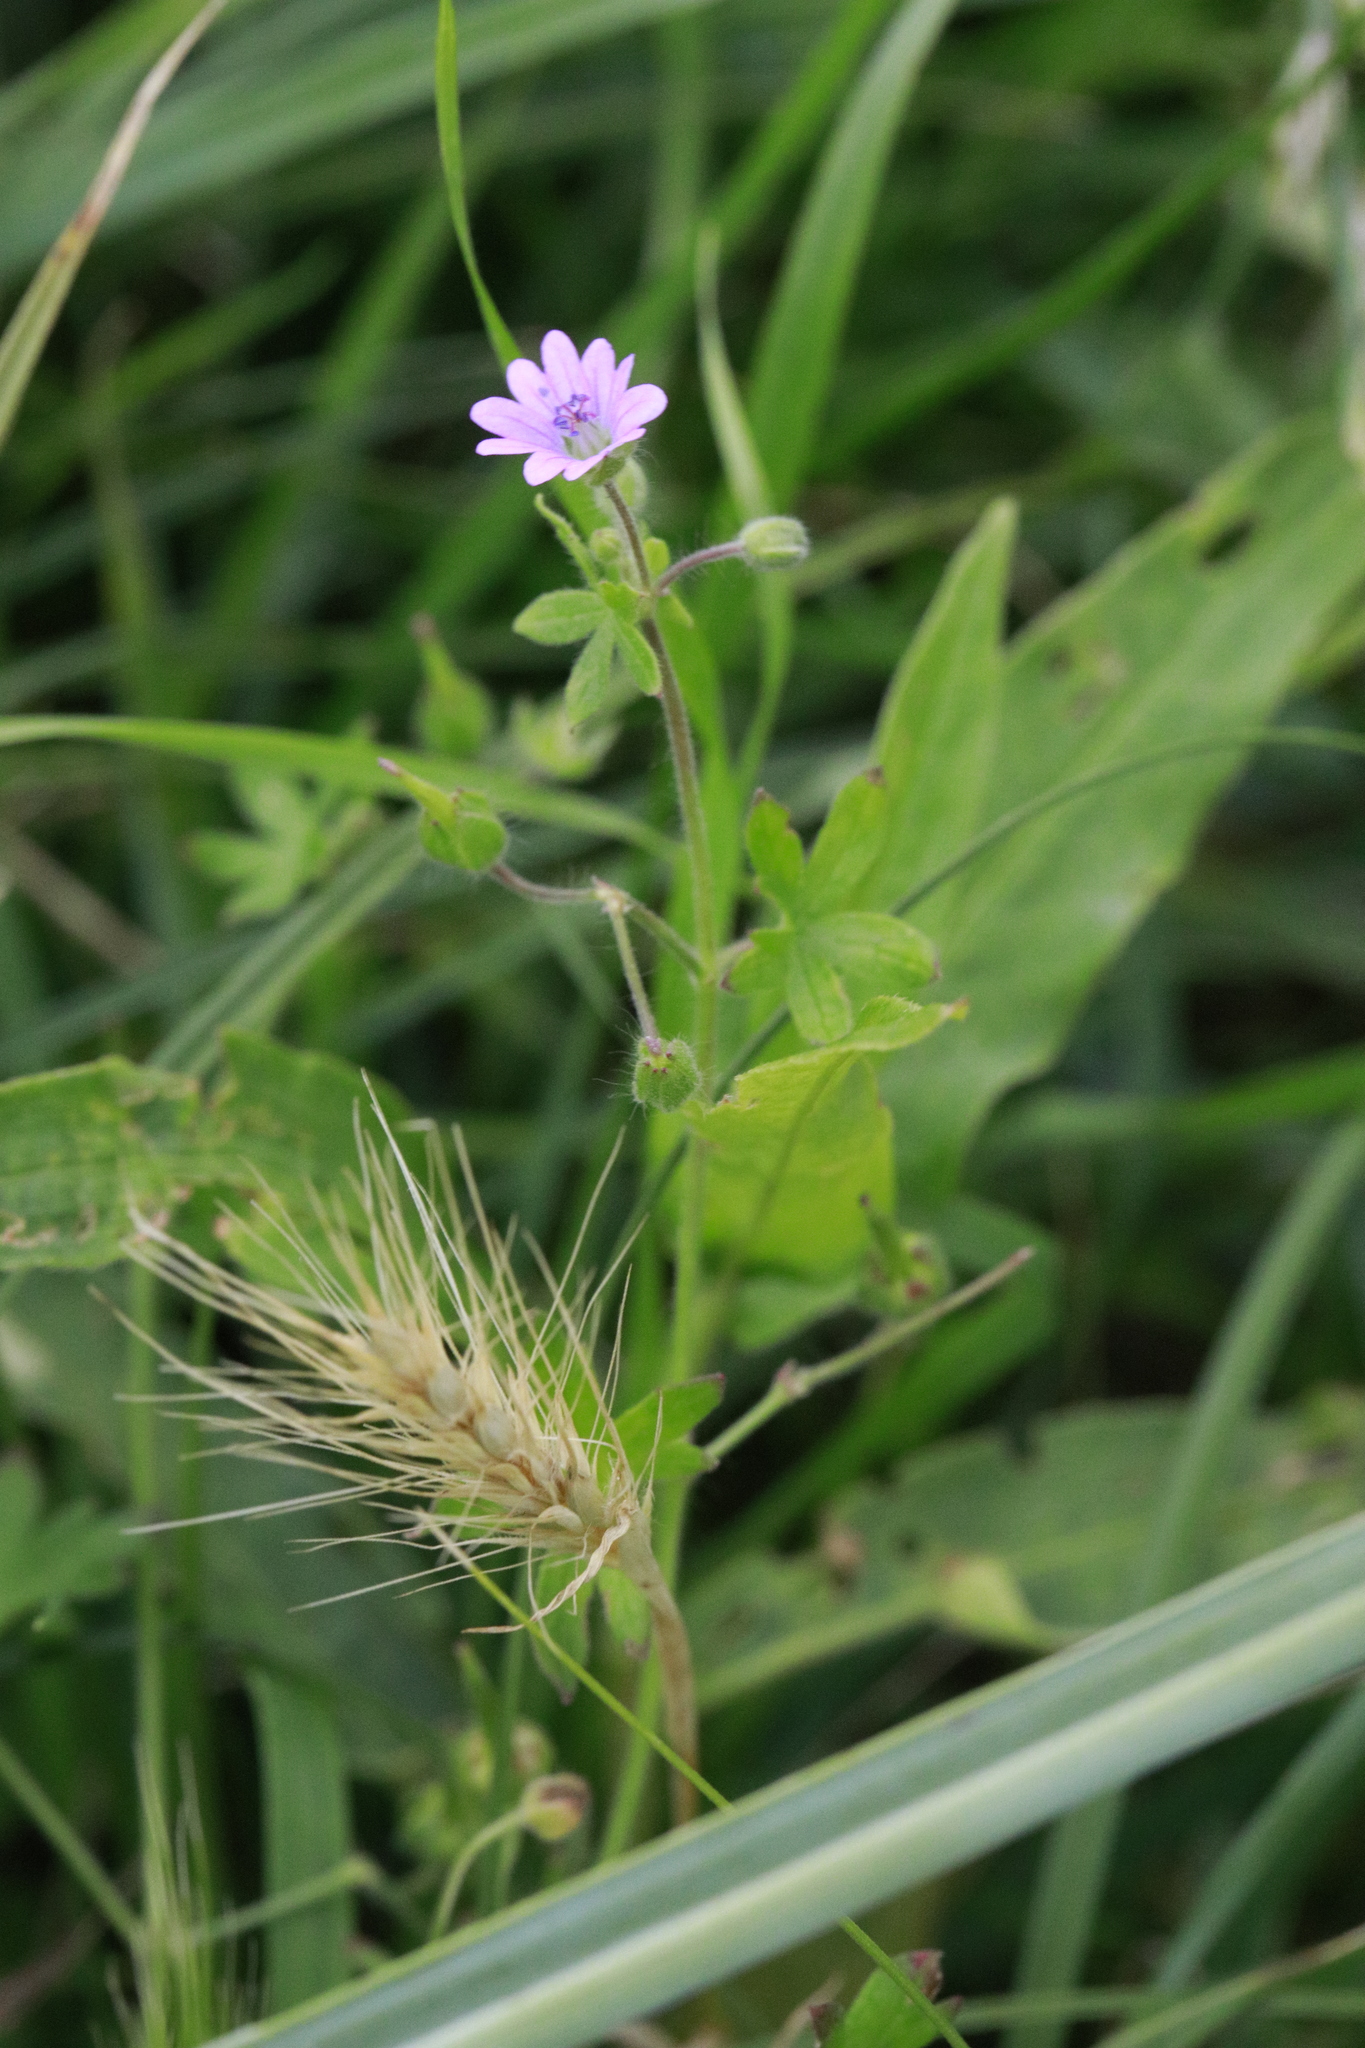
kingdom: Plantae
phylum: Tracheophyta
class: Magnoliopsida
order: Geraniales
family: Geraniaceae
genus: Geranium
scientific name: Geranium molle
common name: Dove's-foot crane's-bill
